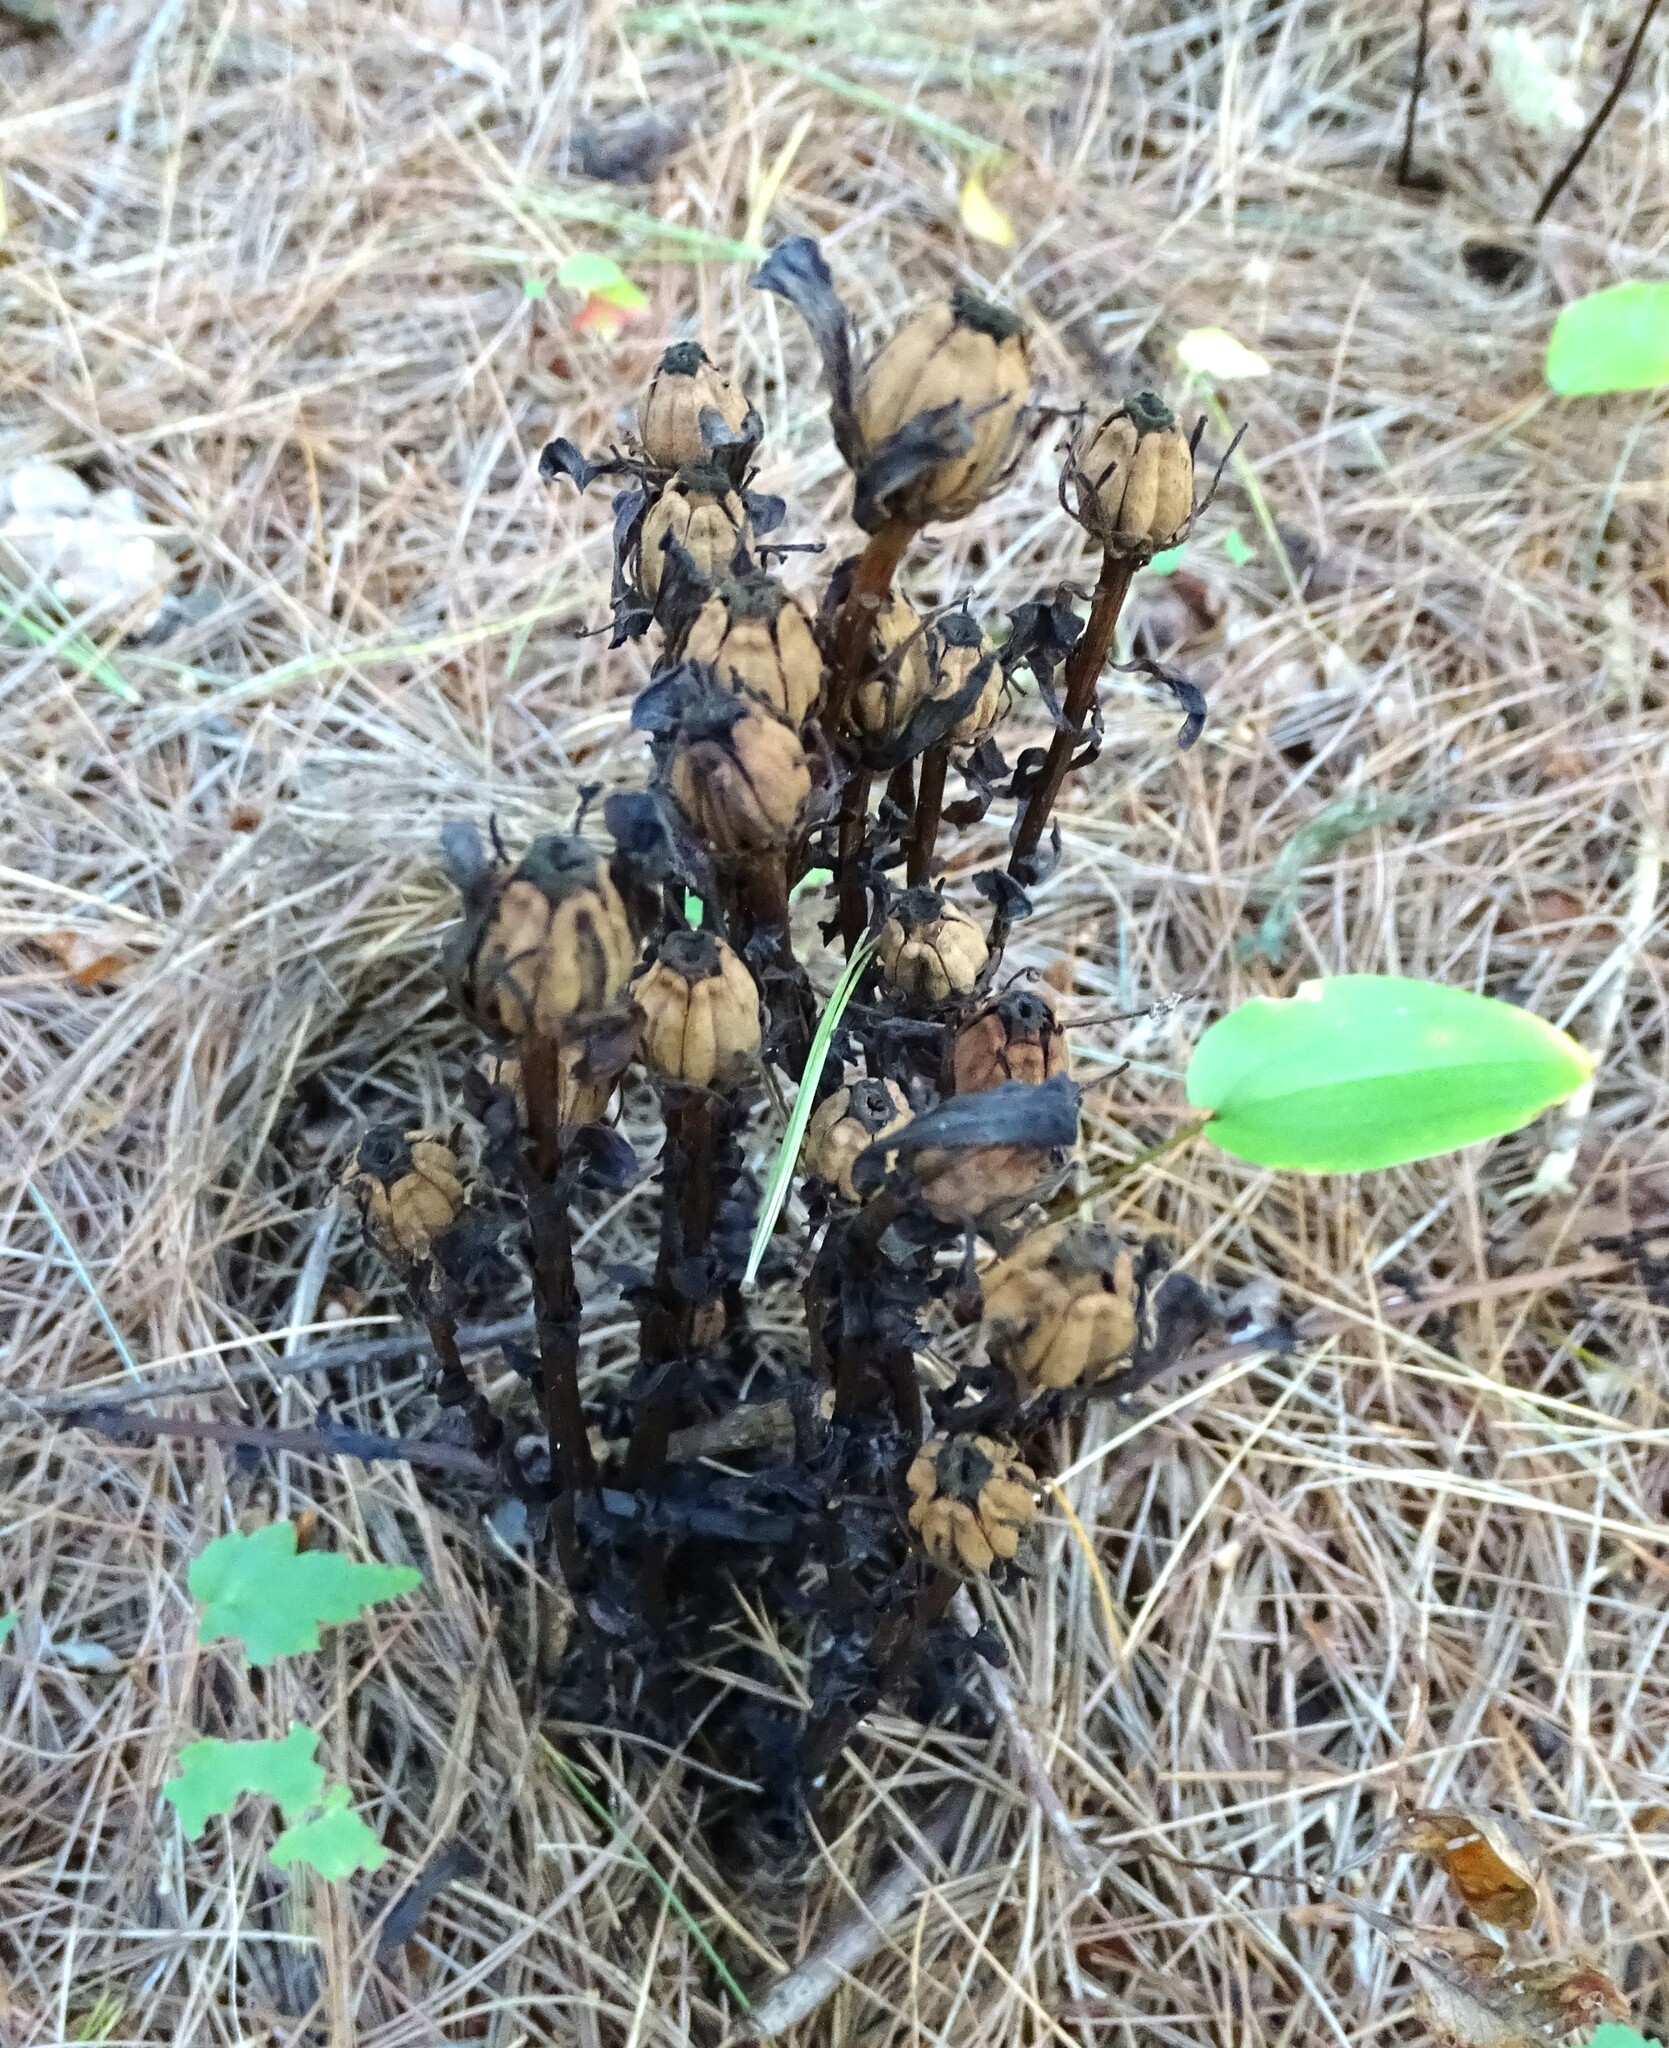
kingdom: Plantae
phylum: Tracheophyta
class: Magnoliopsida
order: Ericales
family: Ericaceae
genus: Monotropa
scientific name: Monotropa uniflora
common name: Convulsion root
